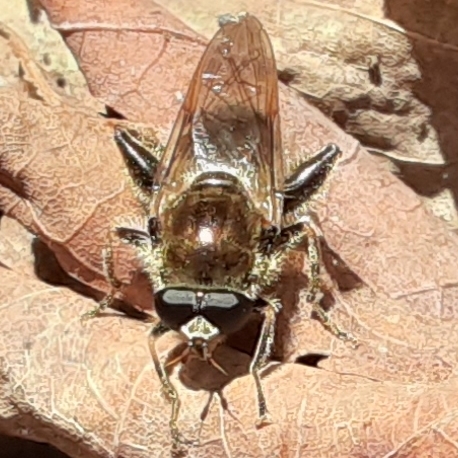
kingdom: Animalia
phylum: Arthropoda
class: Insecta
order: Diptera
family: Syrphidae
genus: Brachypalpus
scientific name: Brachypalpus oarus
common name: Eastern catkin fly
